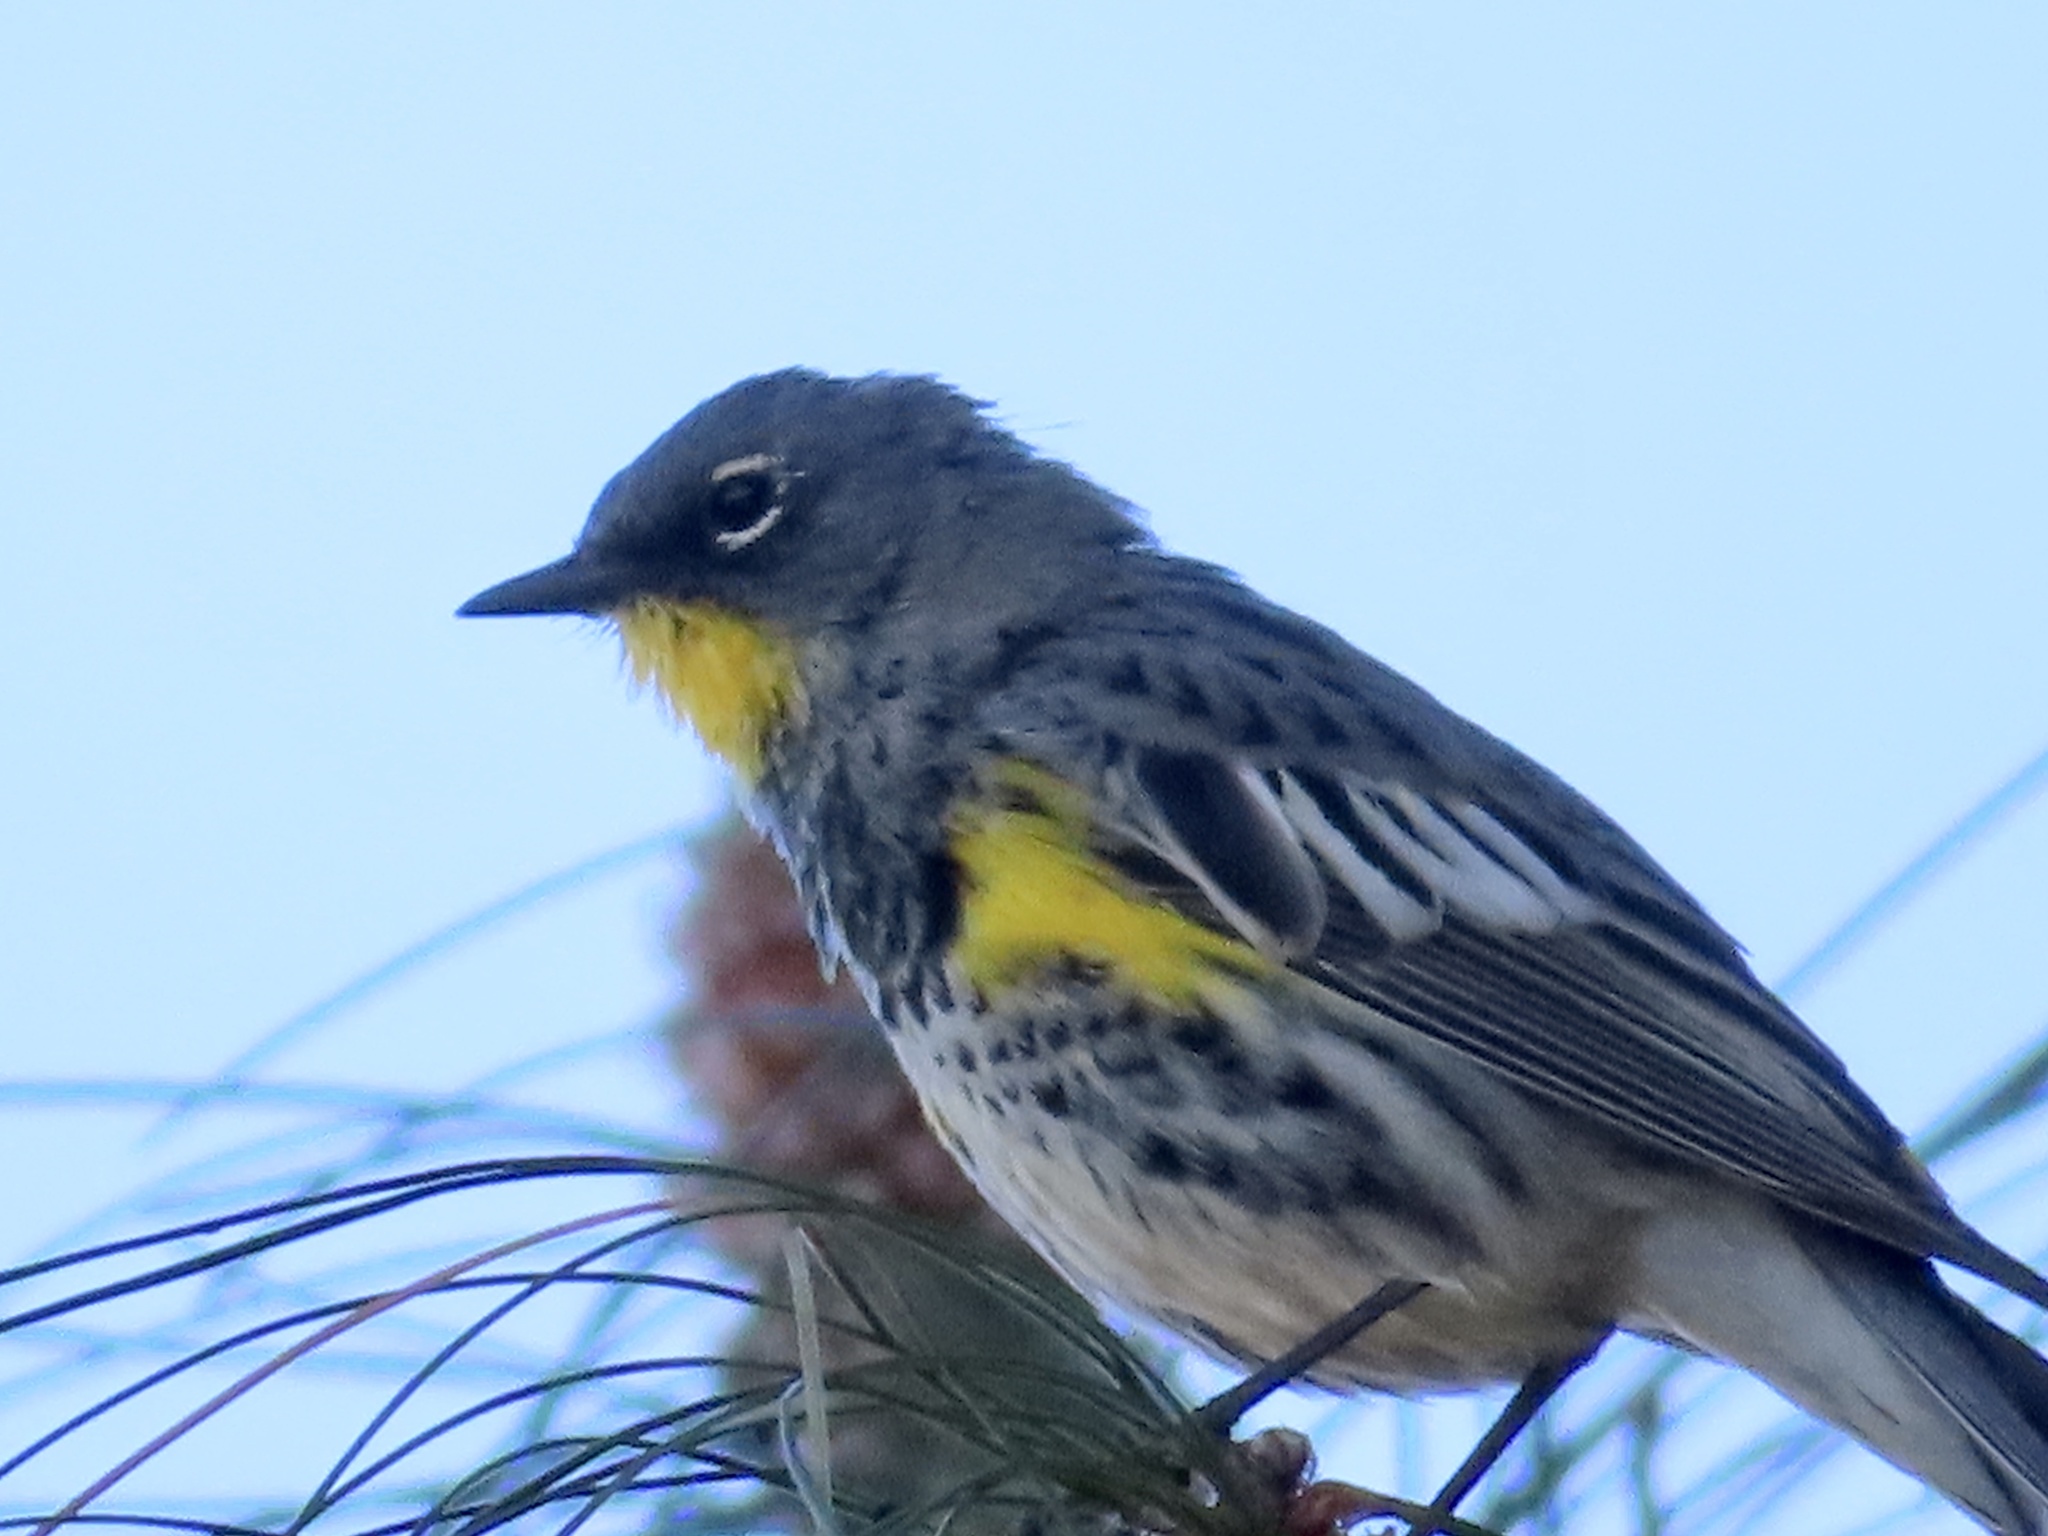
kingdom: Animalia
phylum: Chordata
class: Aves
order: Passeriformes
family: Parulidae
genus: Setophaga
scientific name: Setophaga coronata
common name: Myrtle warbler
